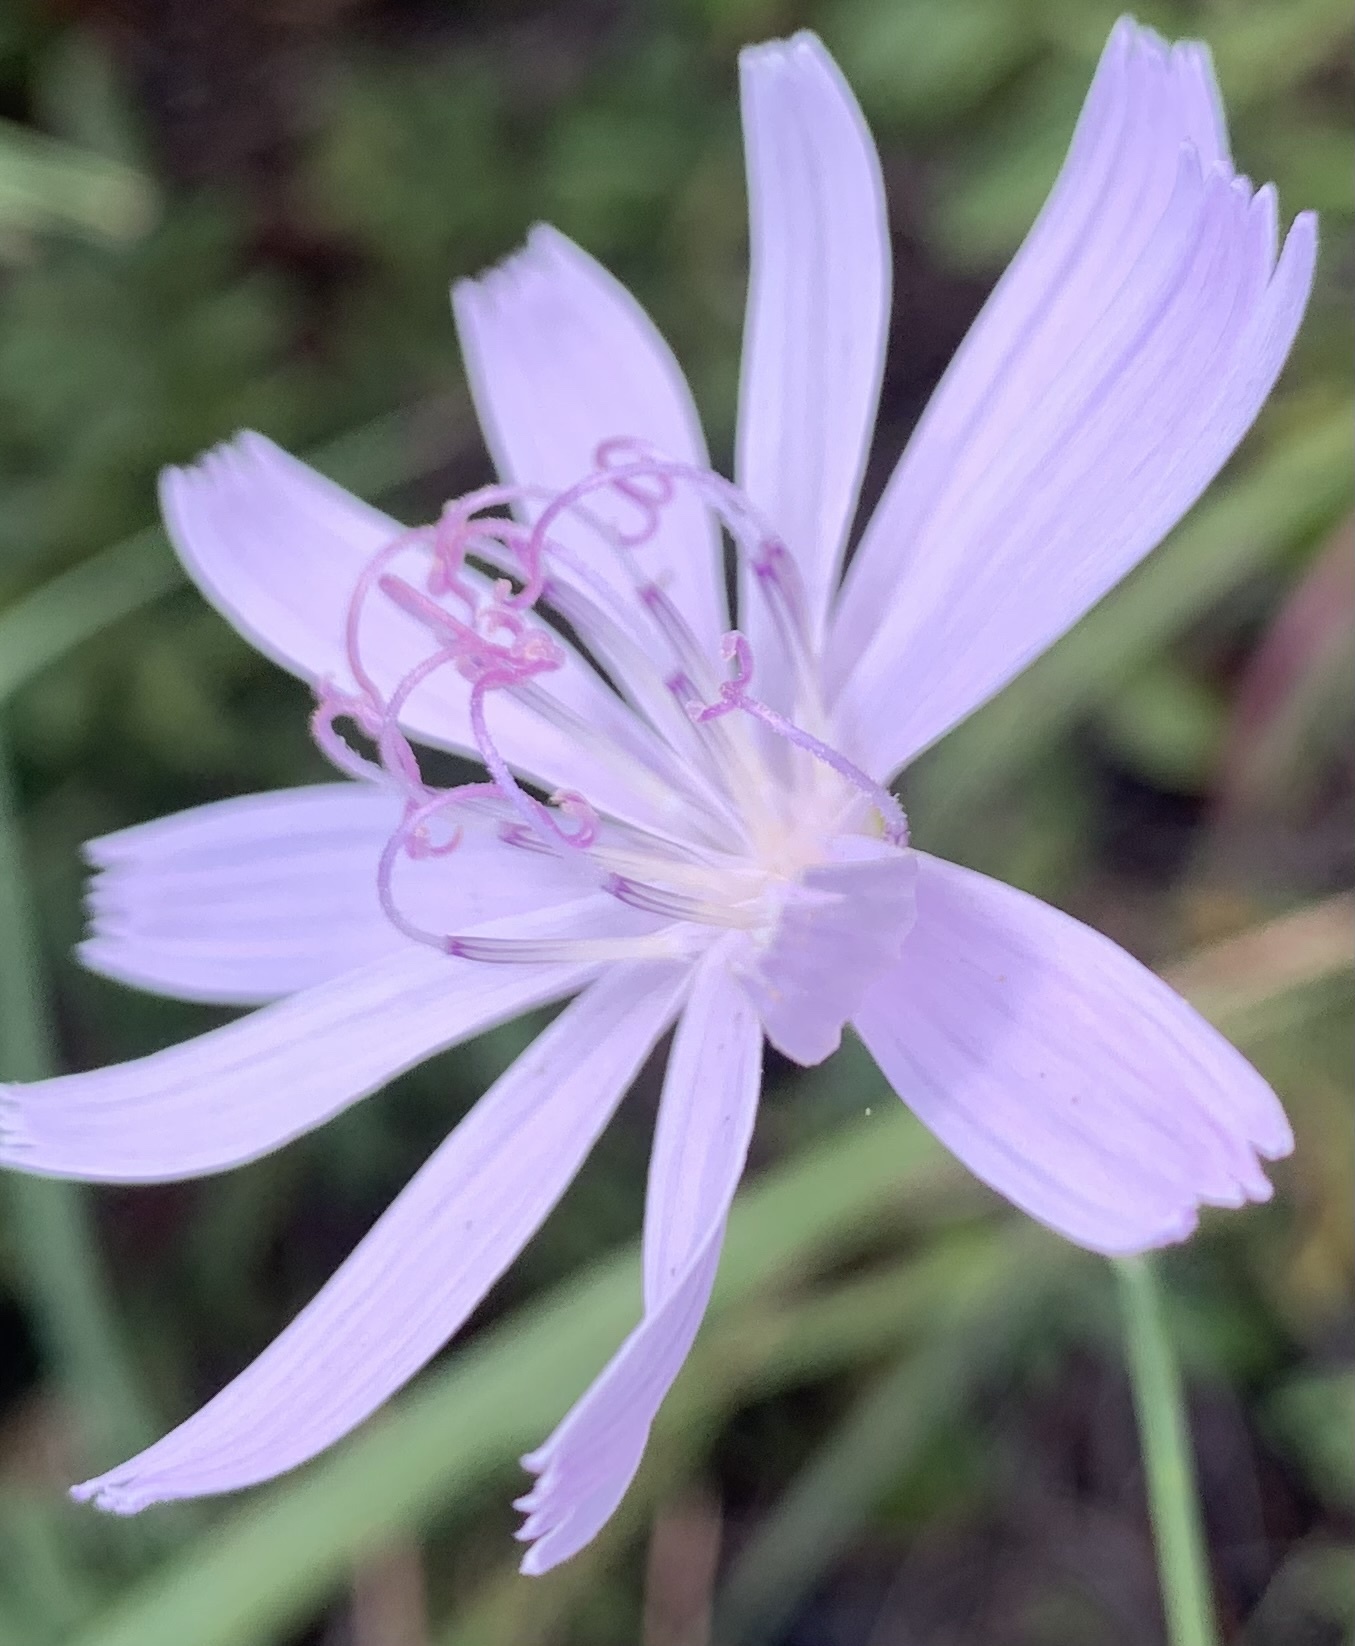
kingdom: Plantae
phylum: Tracheophyta
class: Magnoliopsida
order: Asterales
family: Asteraceae
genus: Lygodesmia
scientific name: Lygodesmia aphylla
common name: Rose-rush
